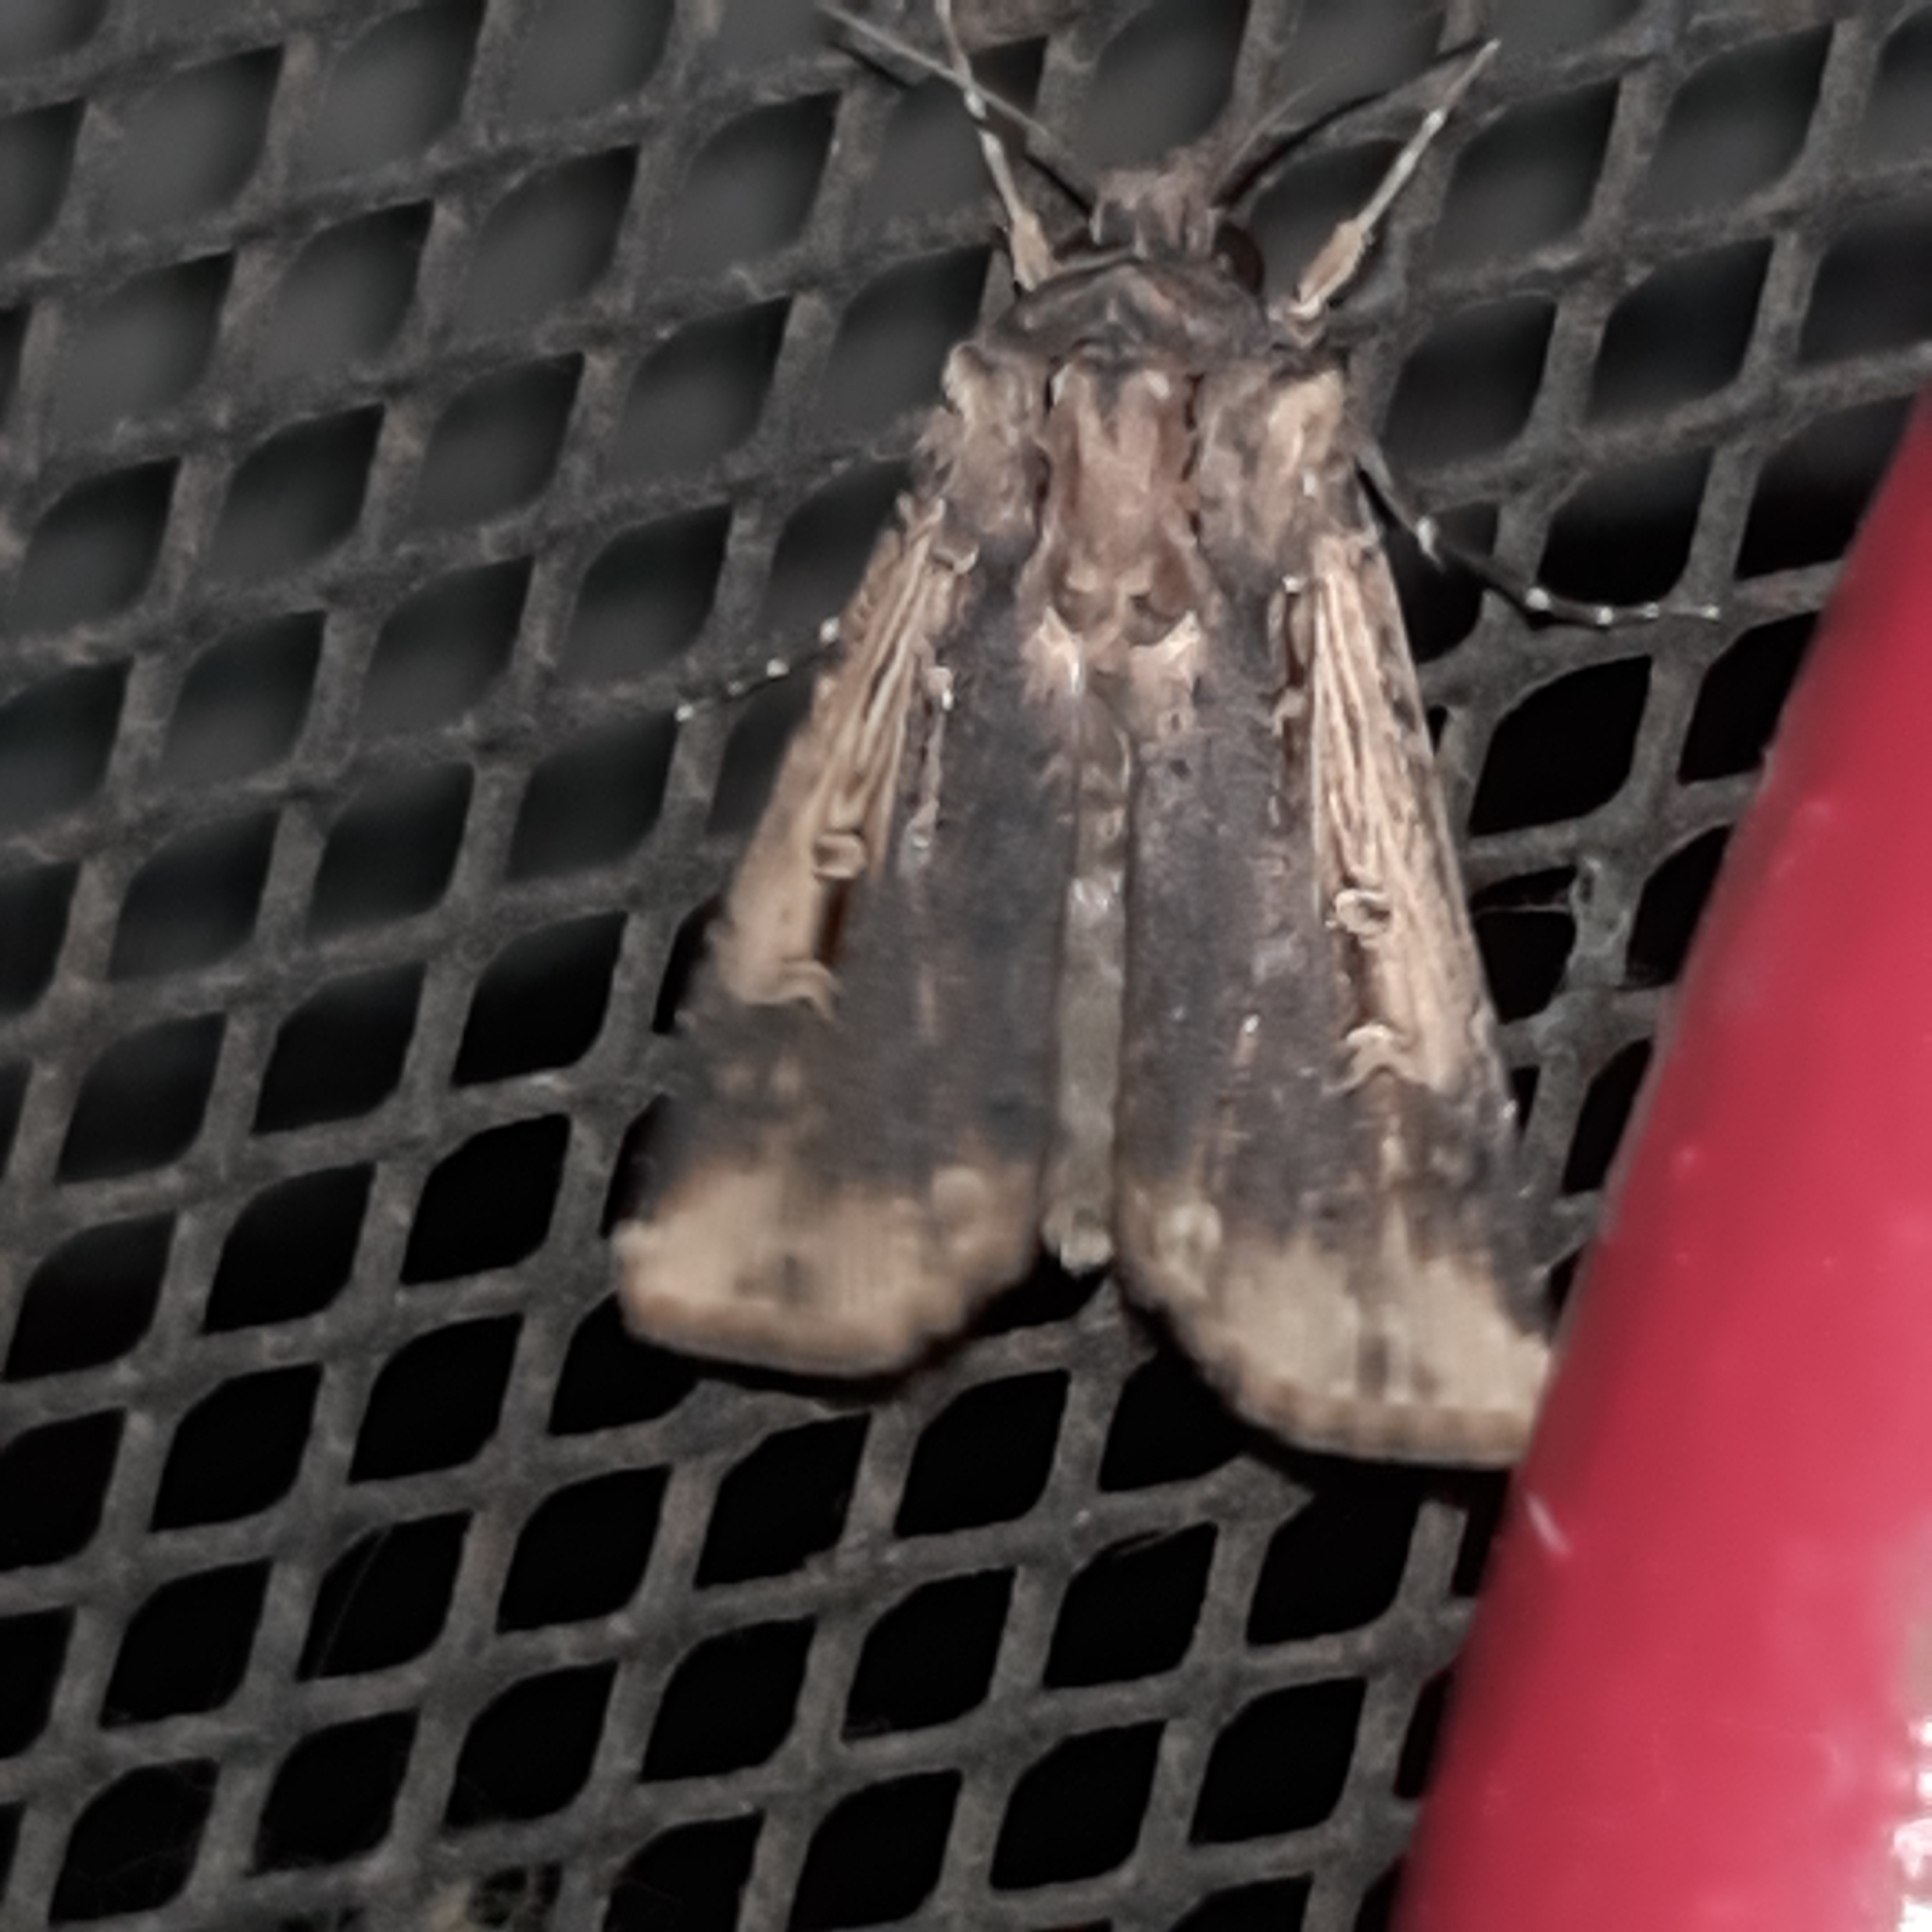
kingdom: Animalia
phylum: Arthropoda
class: Insecta
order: Lepidoptera
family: Noctuidae
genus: Feltia
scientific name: Feltia subterranea
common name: Granulate cutworm
